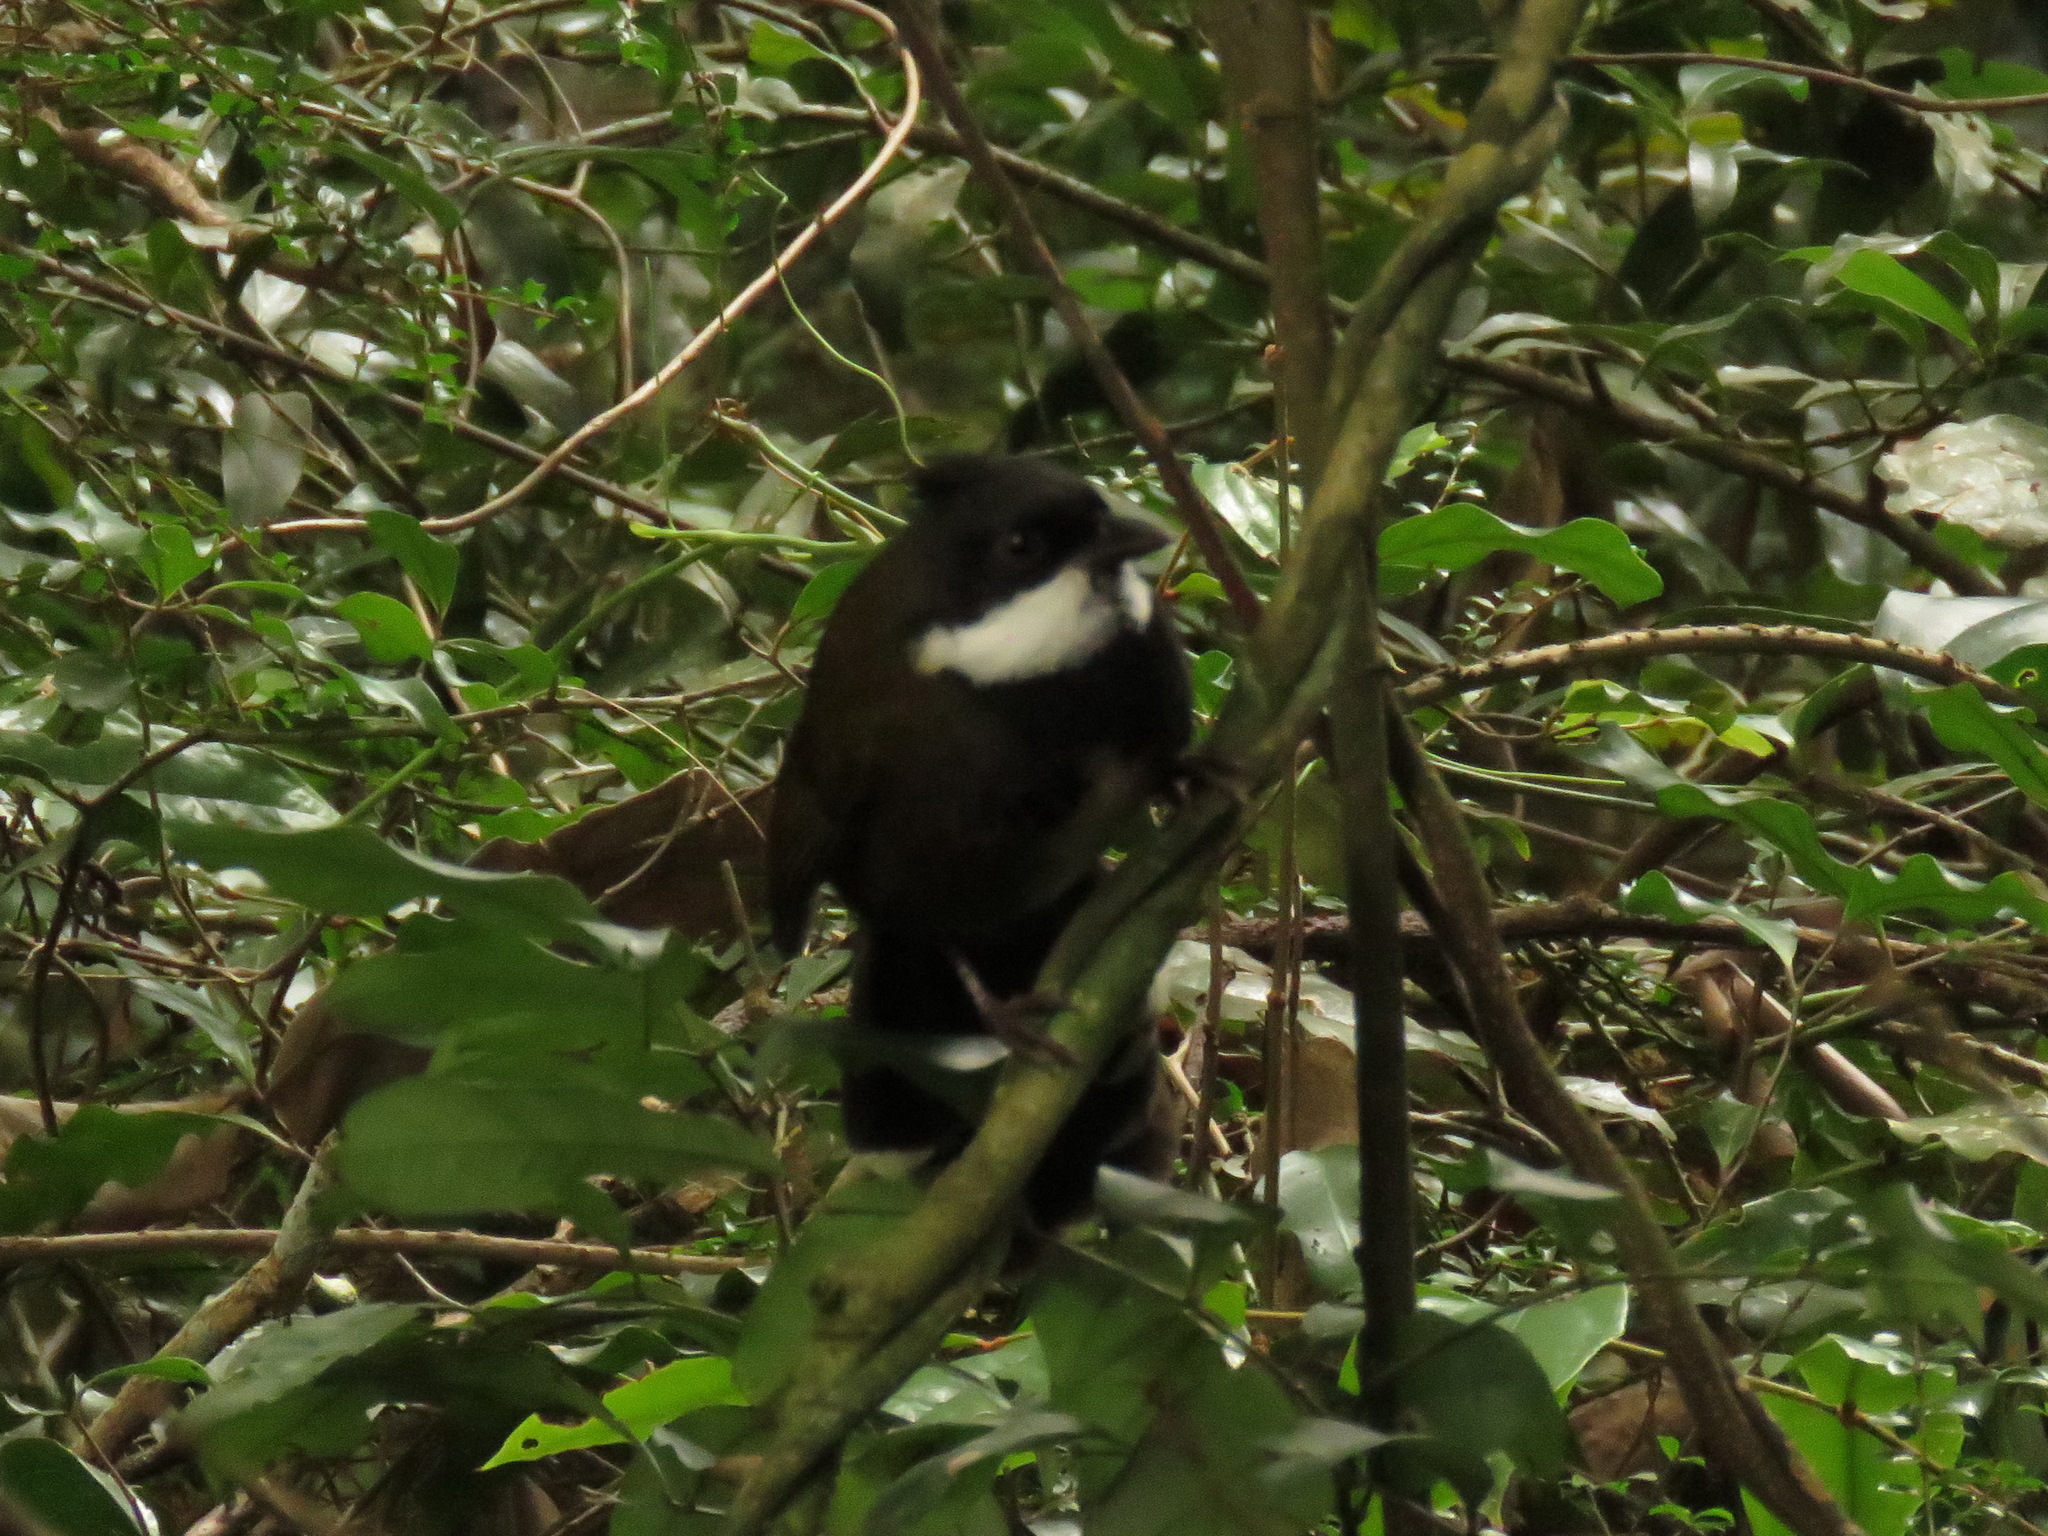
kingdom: Animalia
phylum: Chordata
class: Aves
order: Passeriformes
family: Psophodidae
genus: Psophodes
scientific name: Psophodes olivaceus
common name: Eastern whipbird
